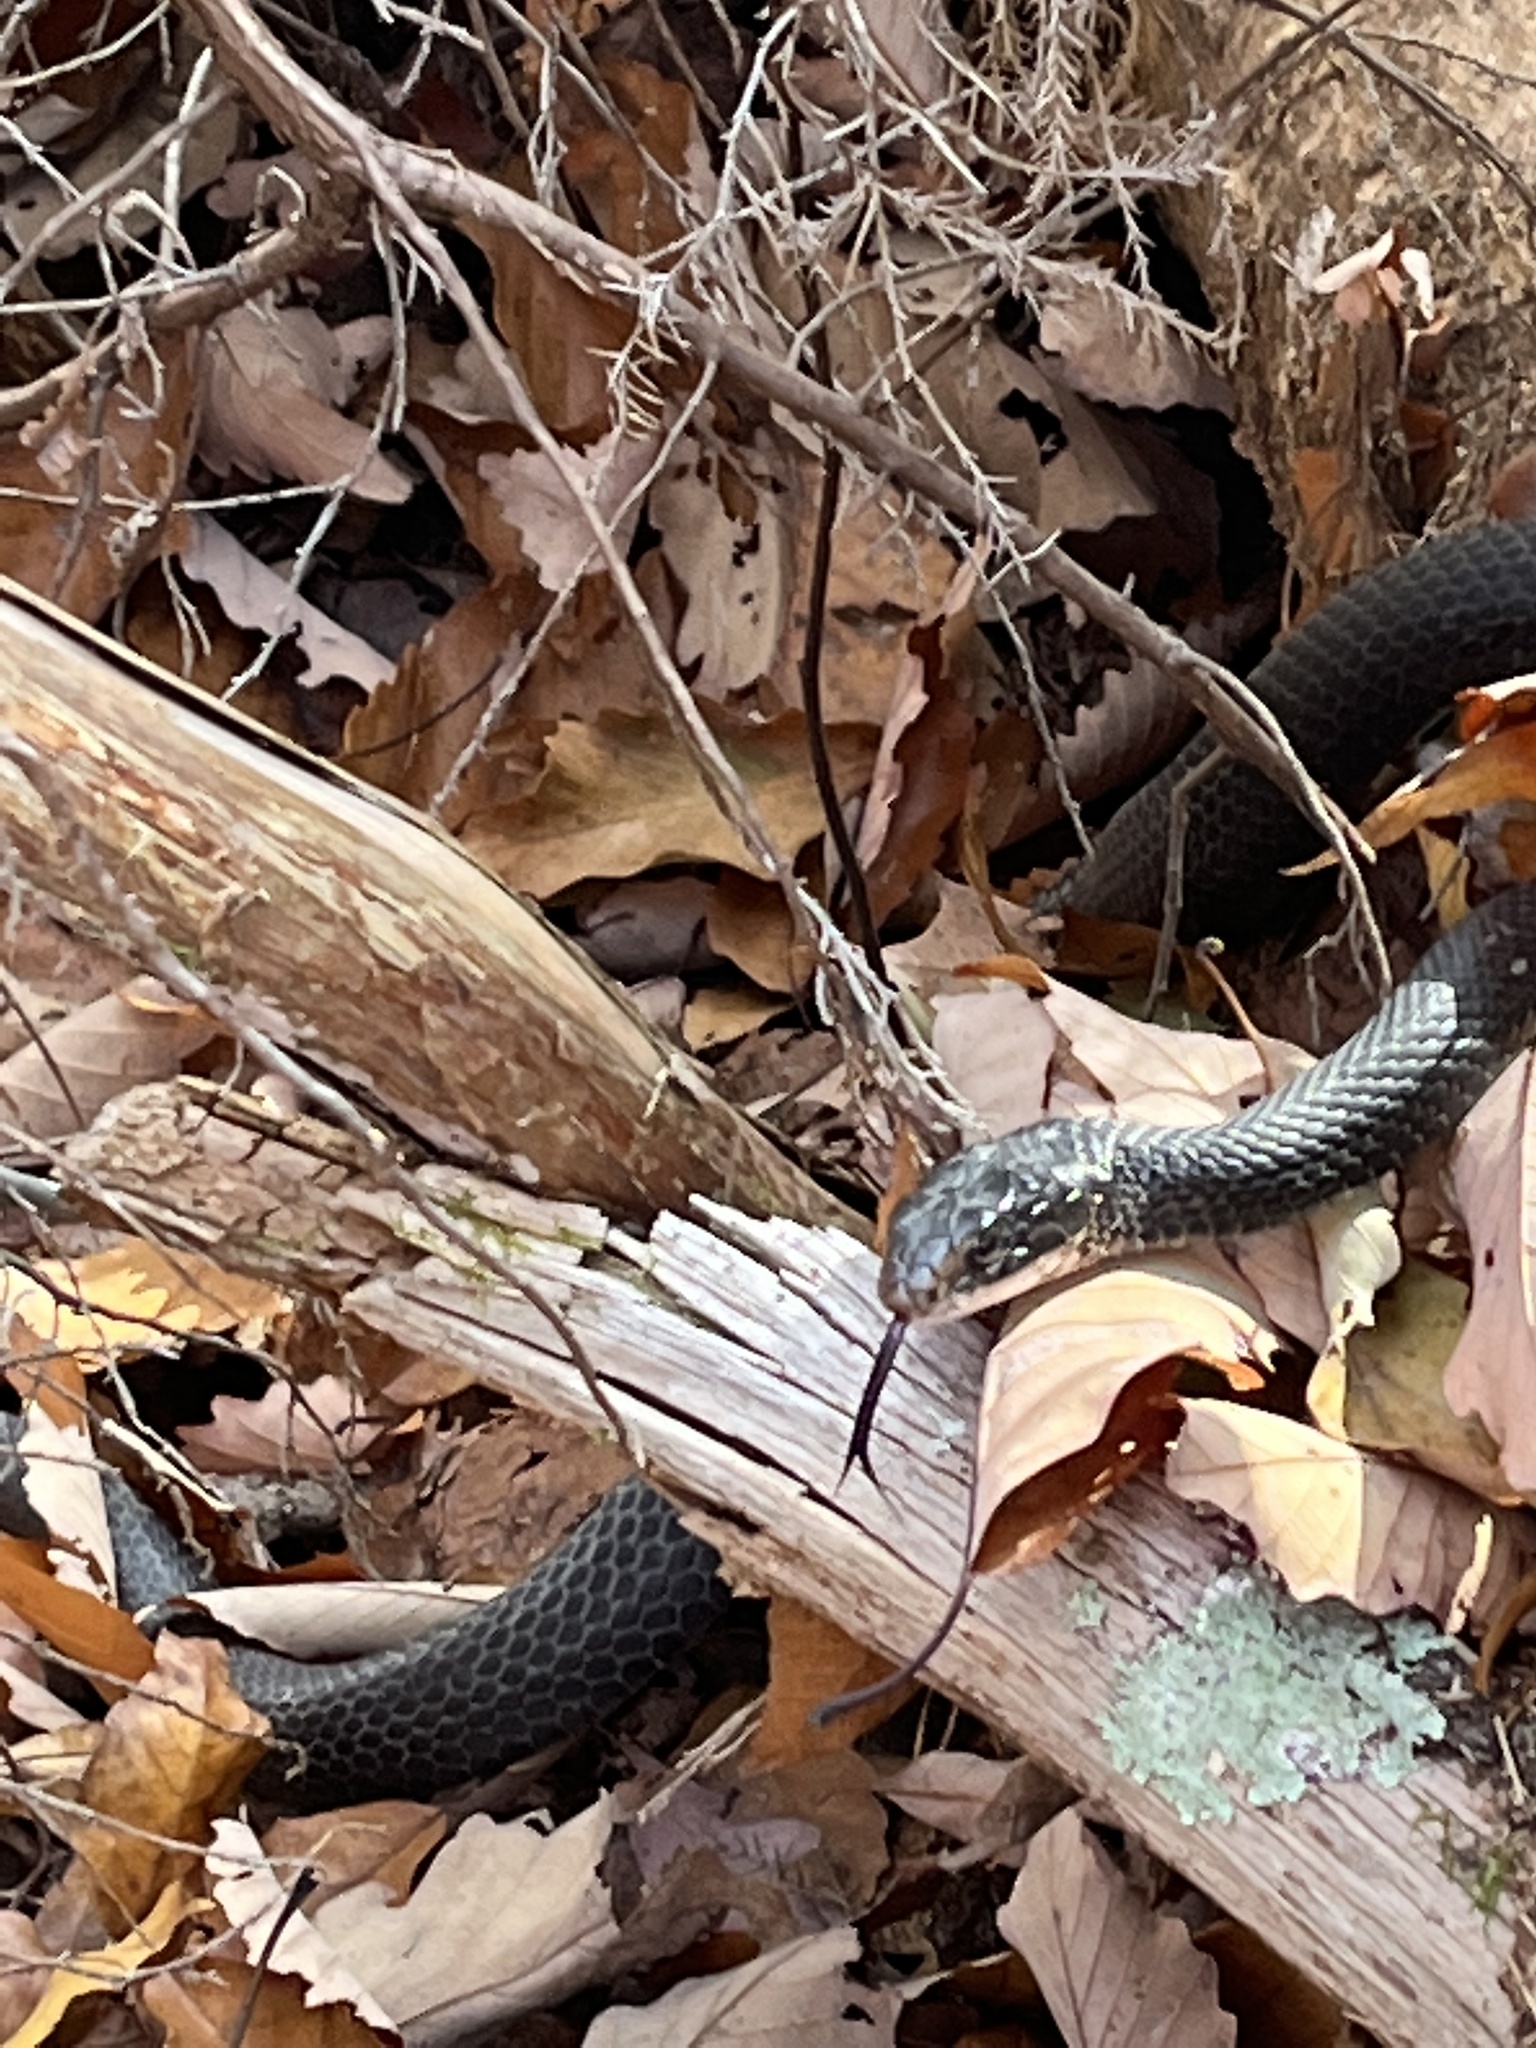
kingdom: Animalia
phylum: Chordata
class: Squamata
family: Colubridae
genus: Coluber
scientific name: Coluber constrictor
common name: Eastern racer
